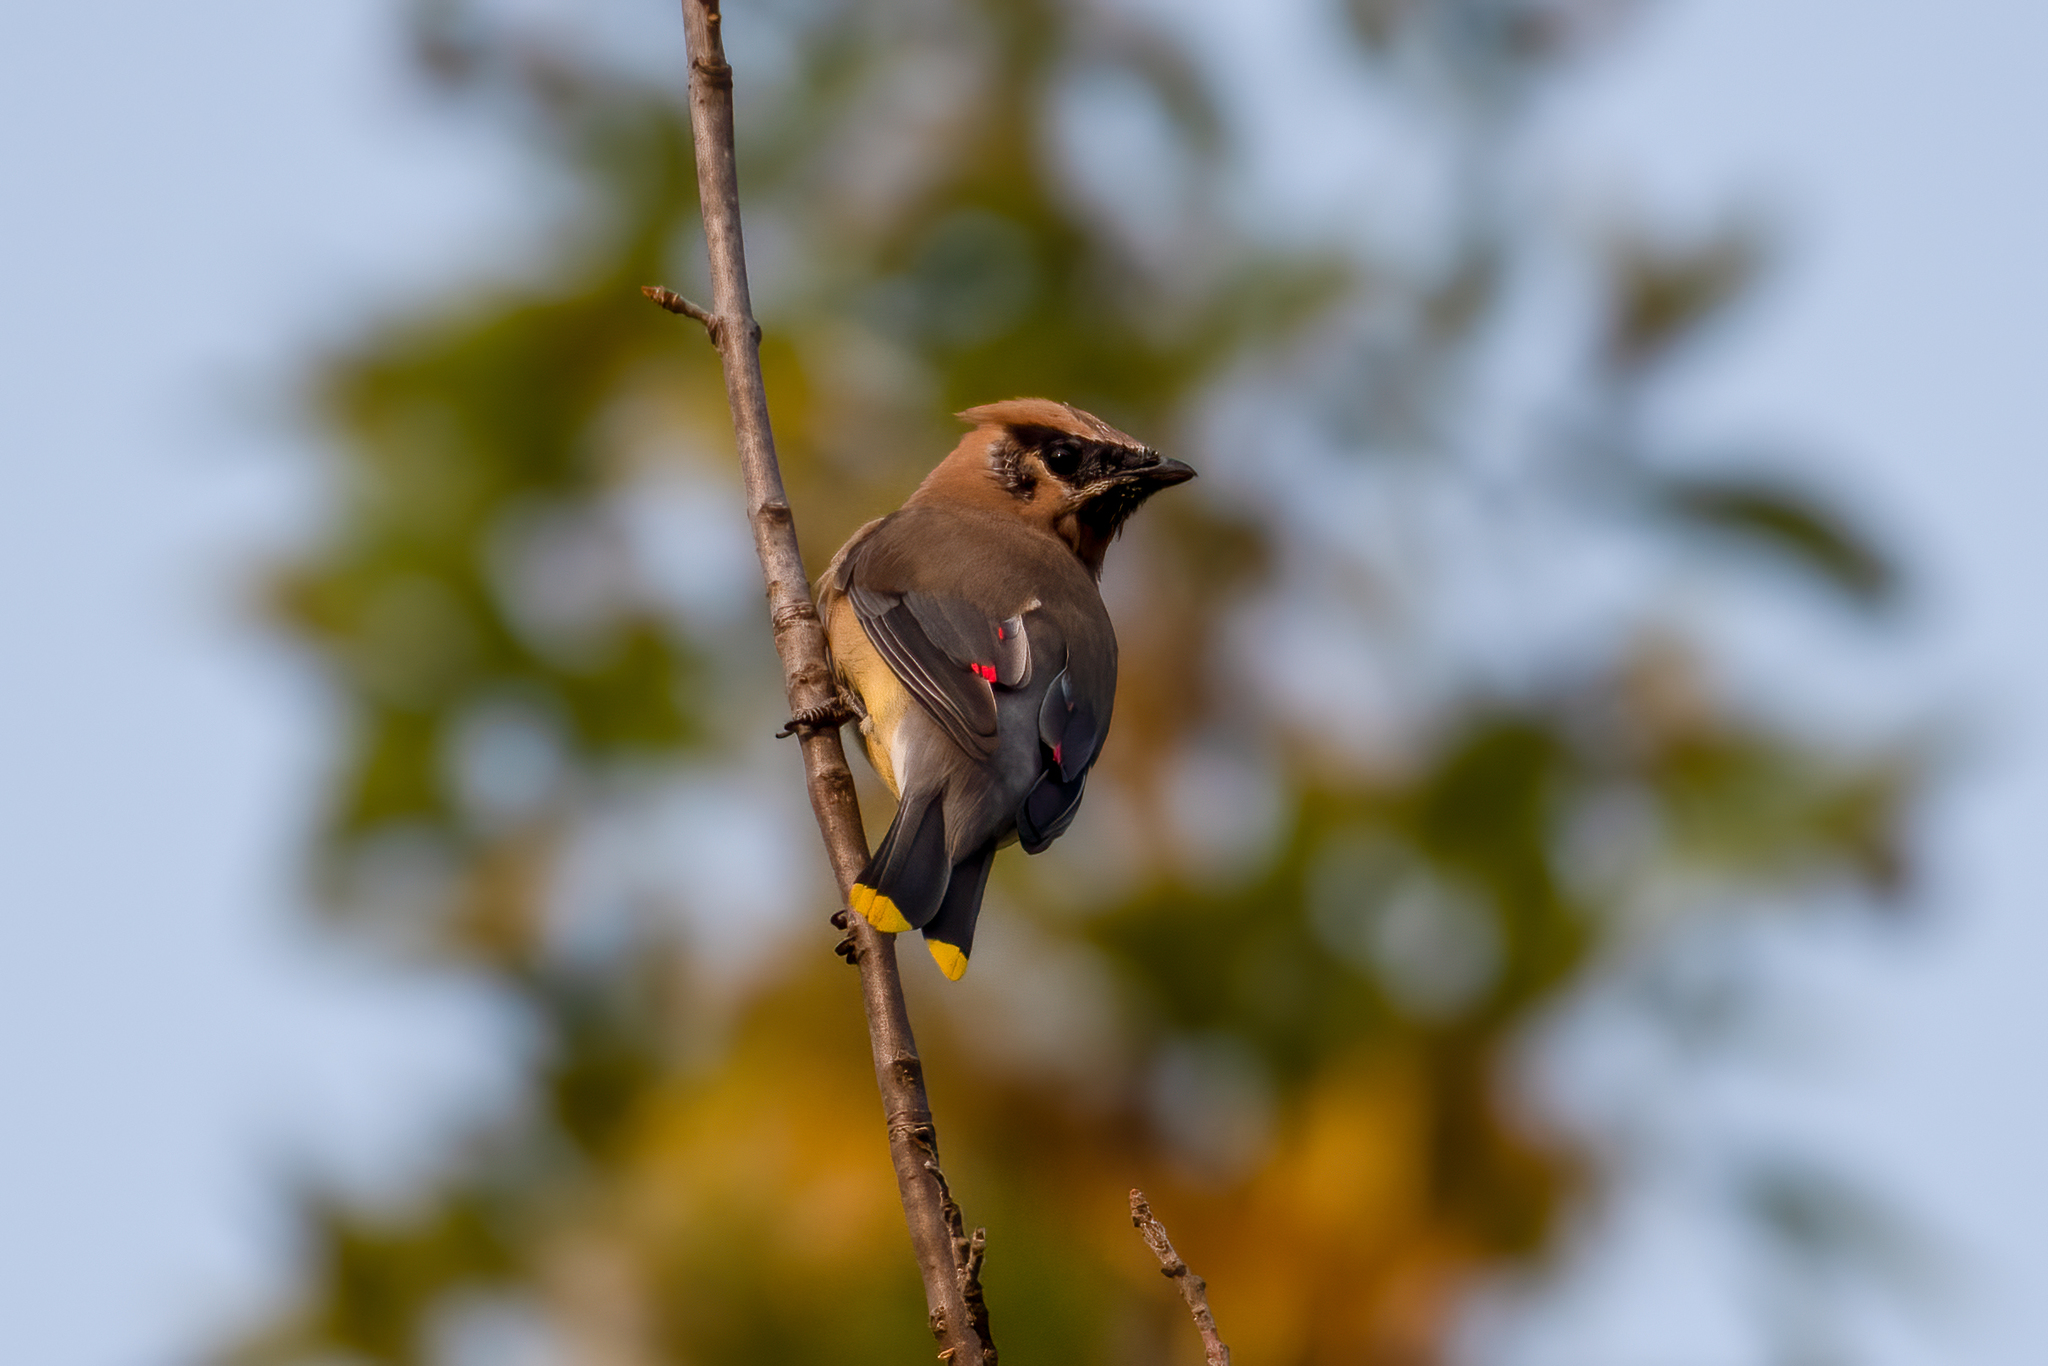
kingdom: Animalia
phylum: Chordata
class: Aves
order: Passeriformes
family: Bombycillidae
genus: Bombycilla
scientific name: Bombycilla cedrorum
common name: Cedar waxwing
